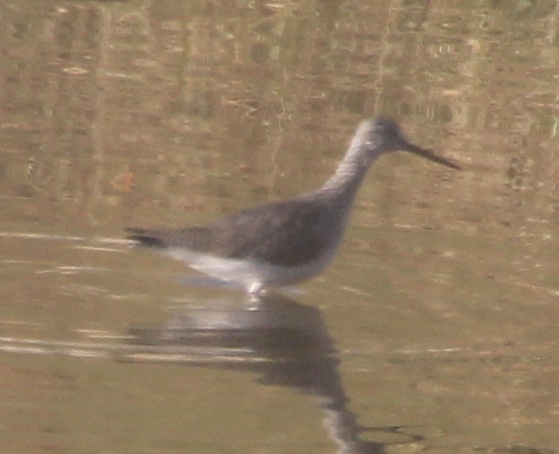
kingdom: Animalia
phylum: Chordata
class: Aves
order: Charadriiformes
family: Scolopacidae
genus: Tringa
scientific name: Tringa melanoleuca
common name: Greater yellowlegs
